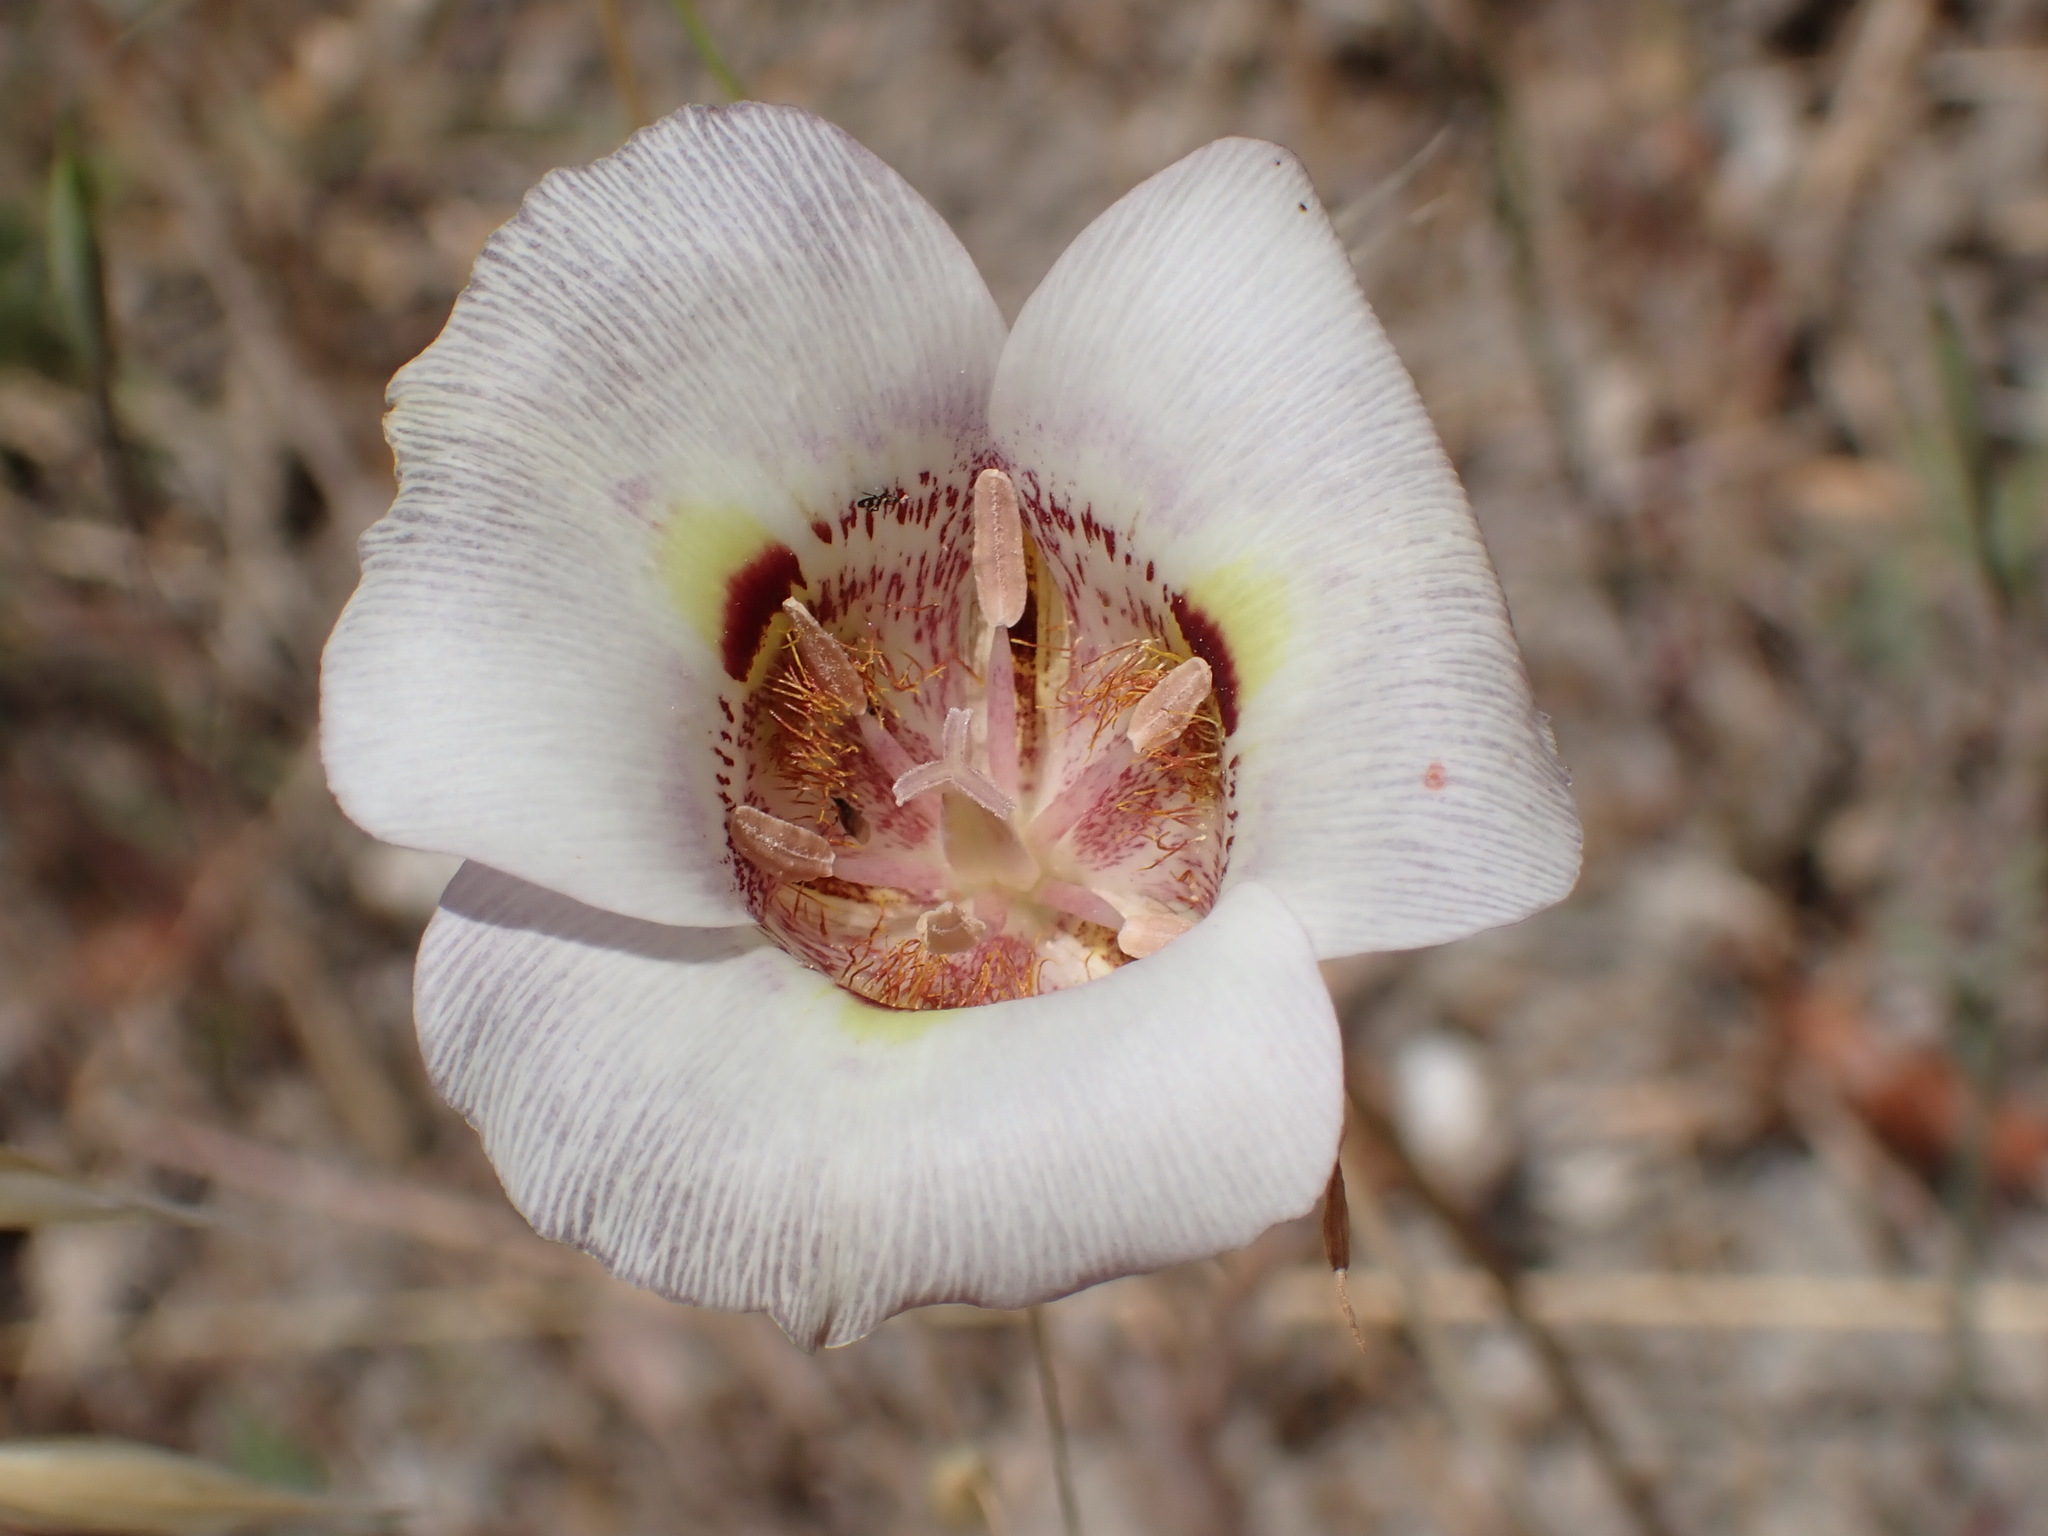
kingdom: Plantae
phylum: Tracheophyta
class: Liliopsida
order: Liliales
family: Liliaceae
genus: Calochortus
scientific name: Calochortus argillosus
